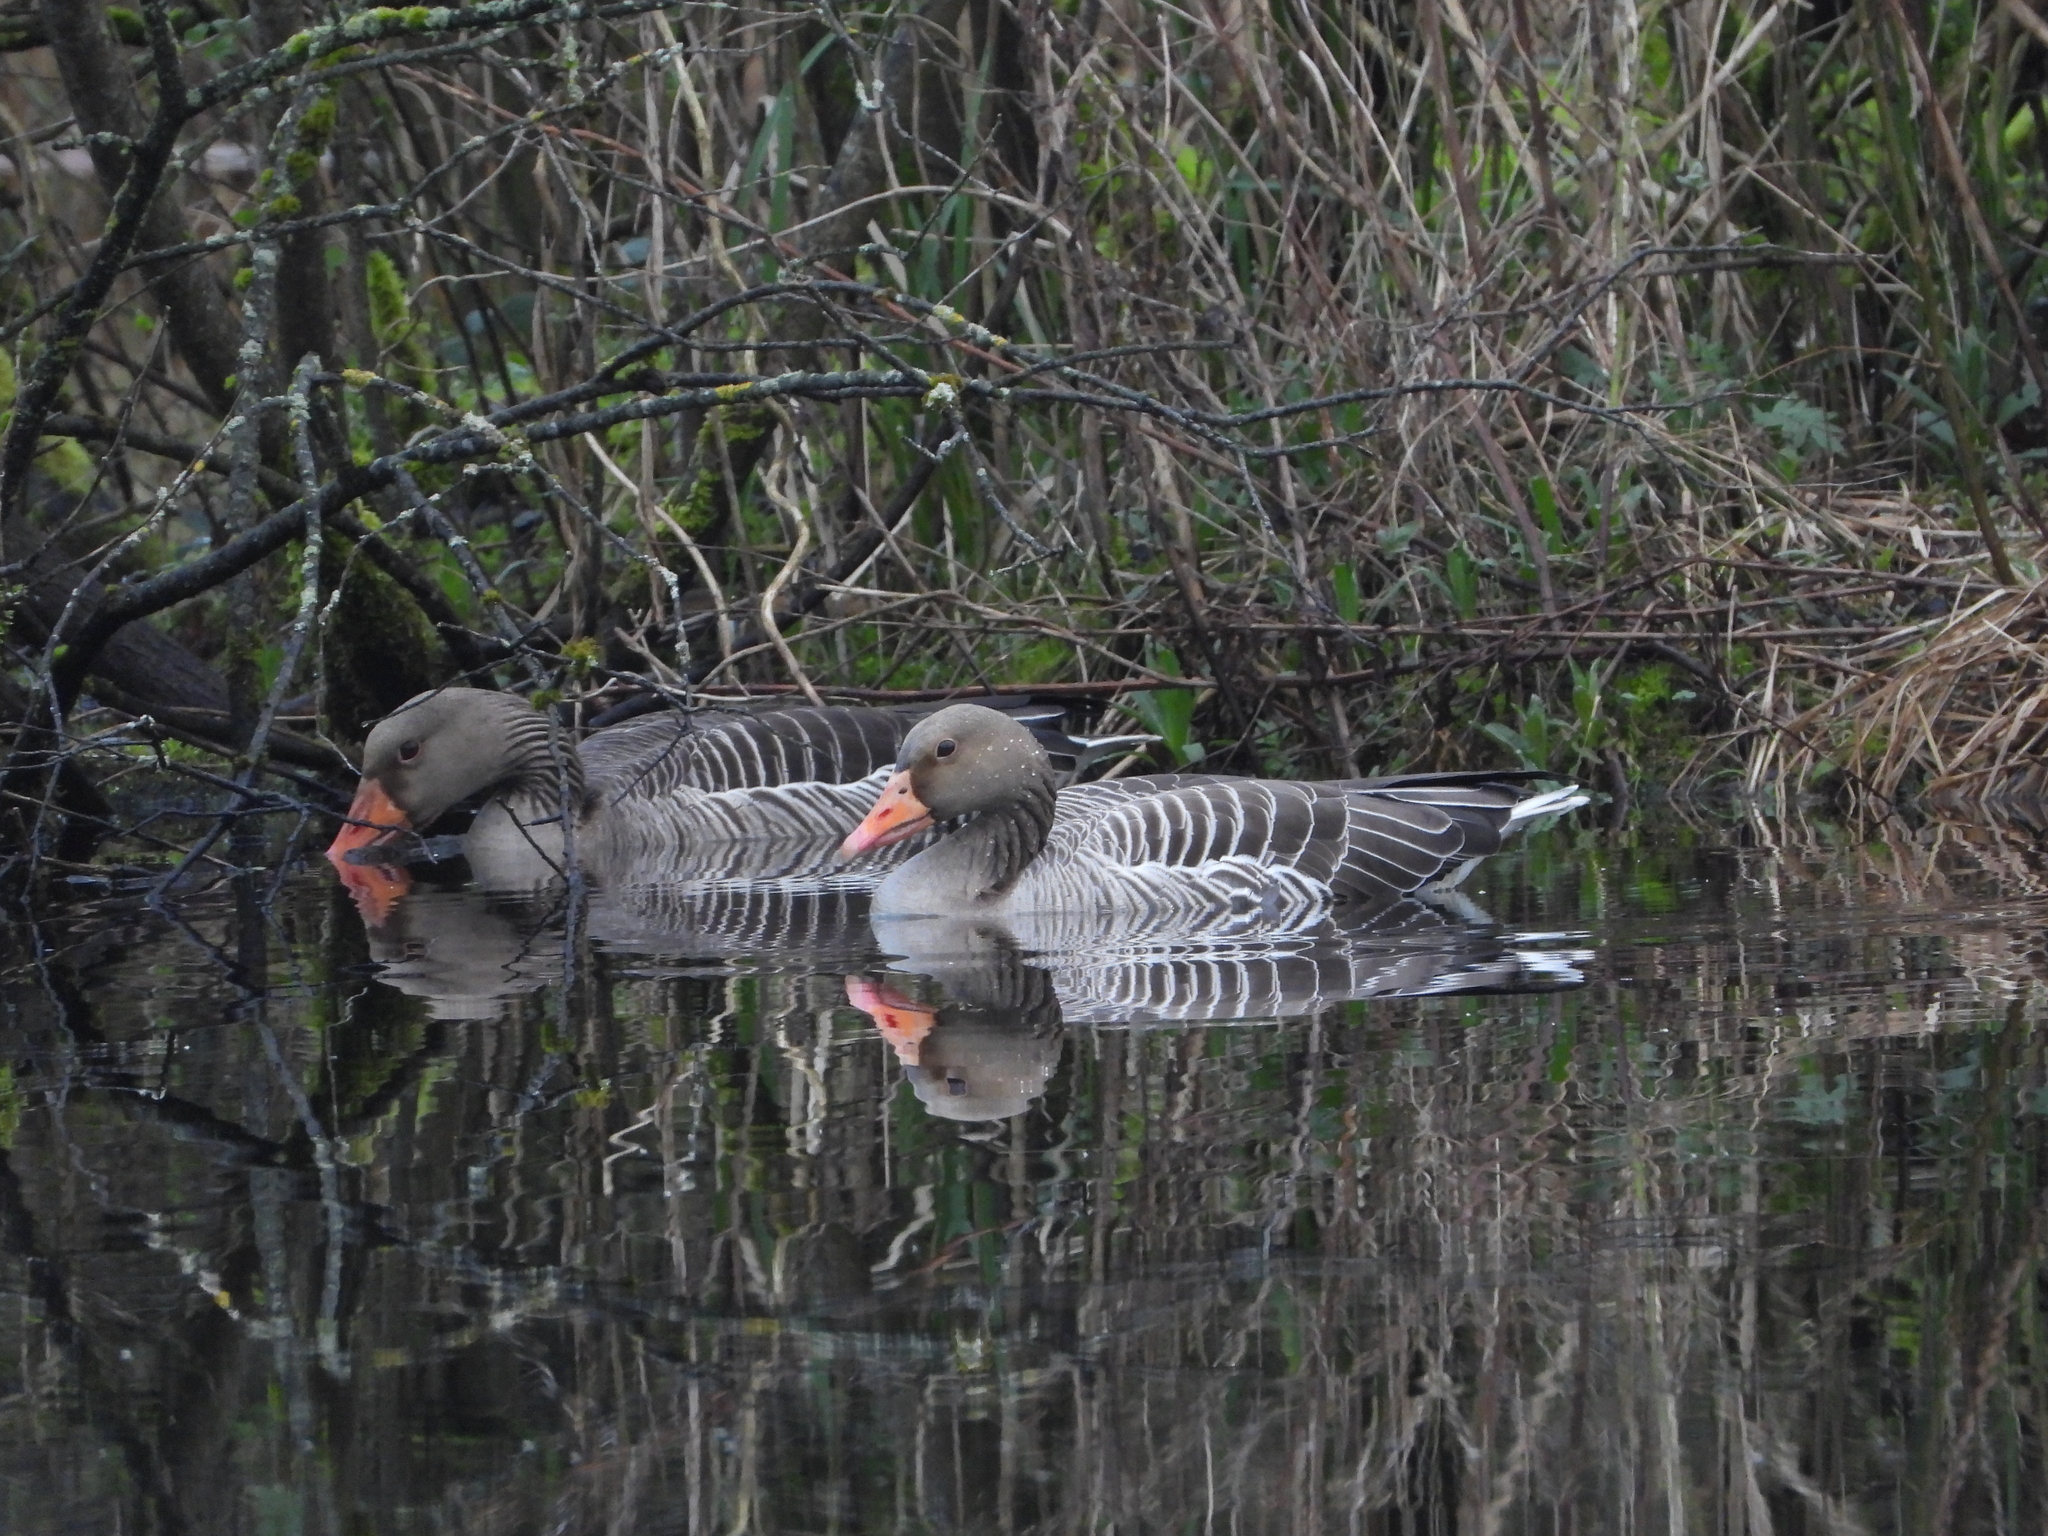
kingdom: Animalia
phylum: Chordata
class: Aves
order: Anseriformes
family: Anatidae
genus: Anser
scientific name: Anser anser
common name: Greylag goose
